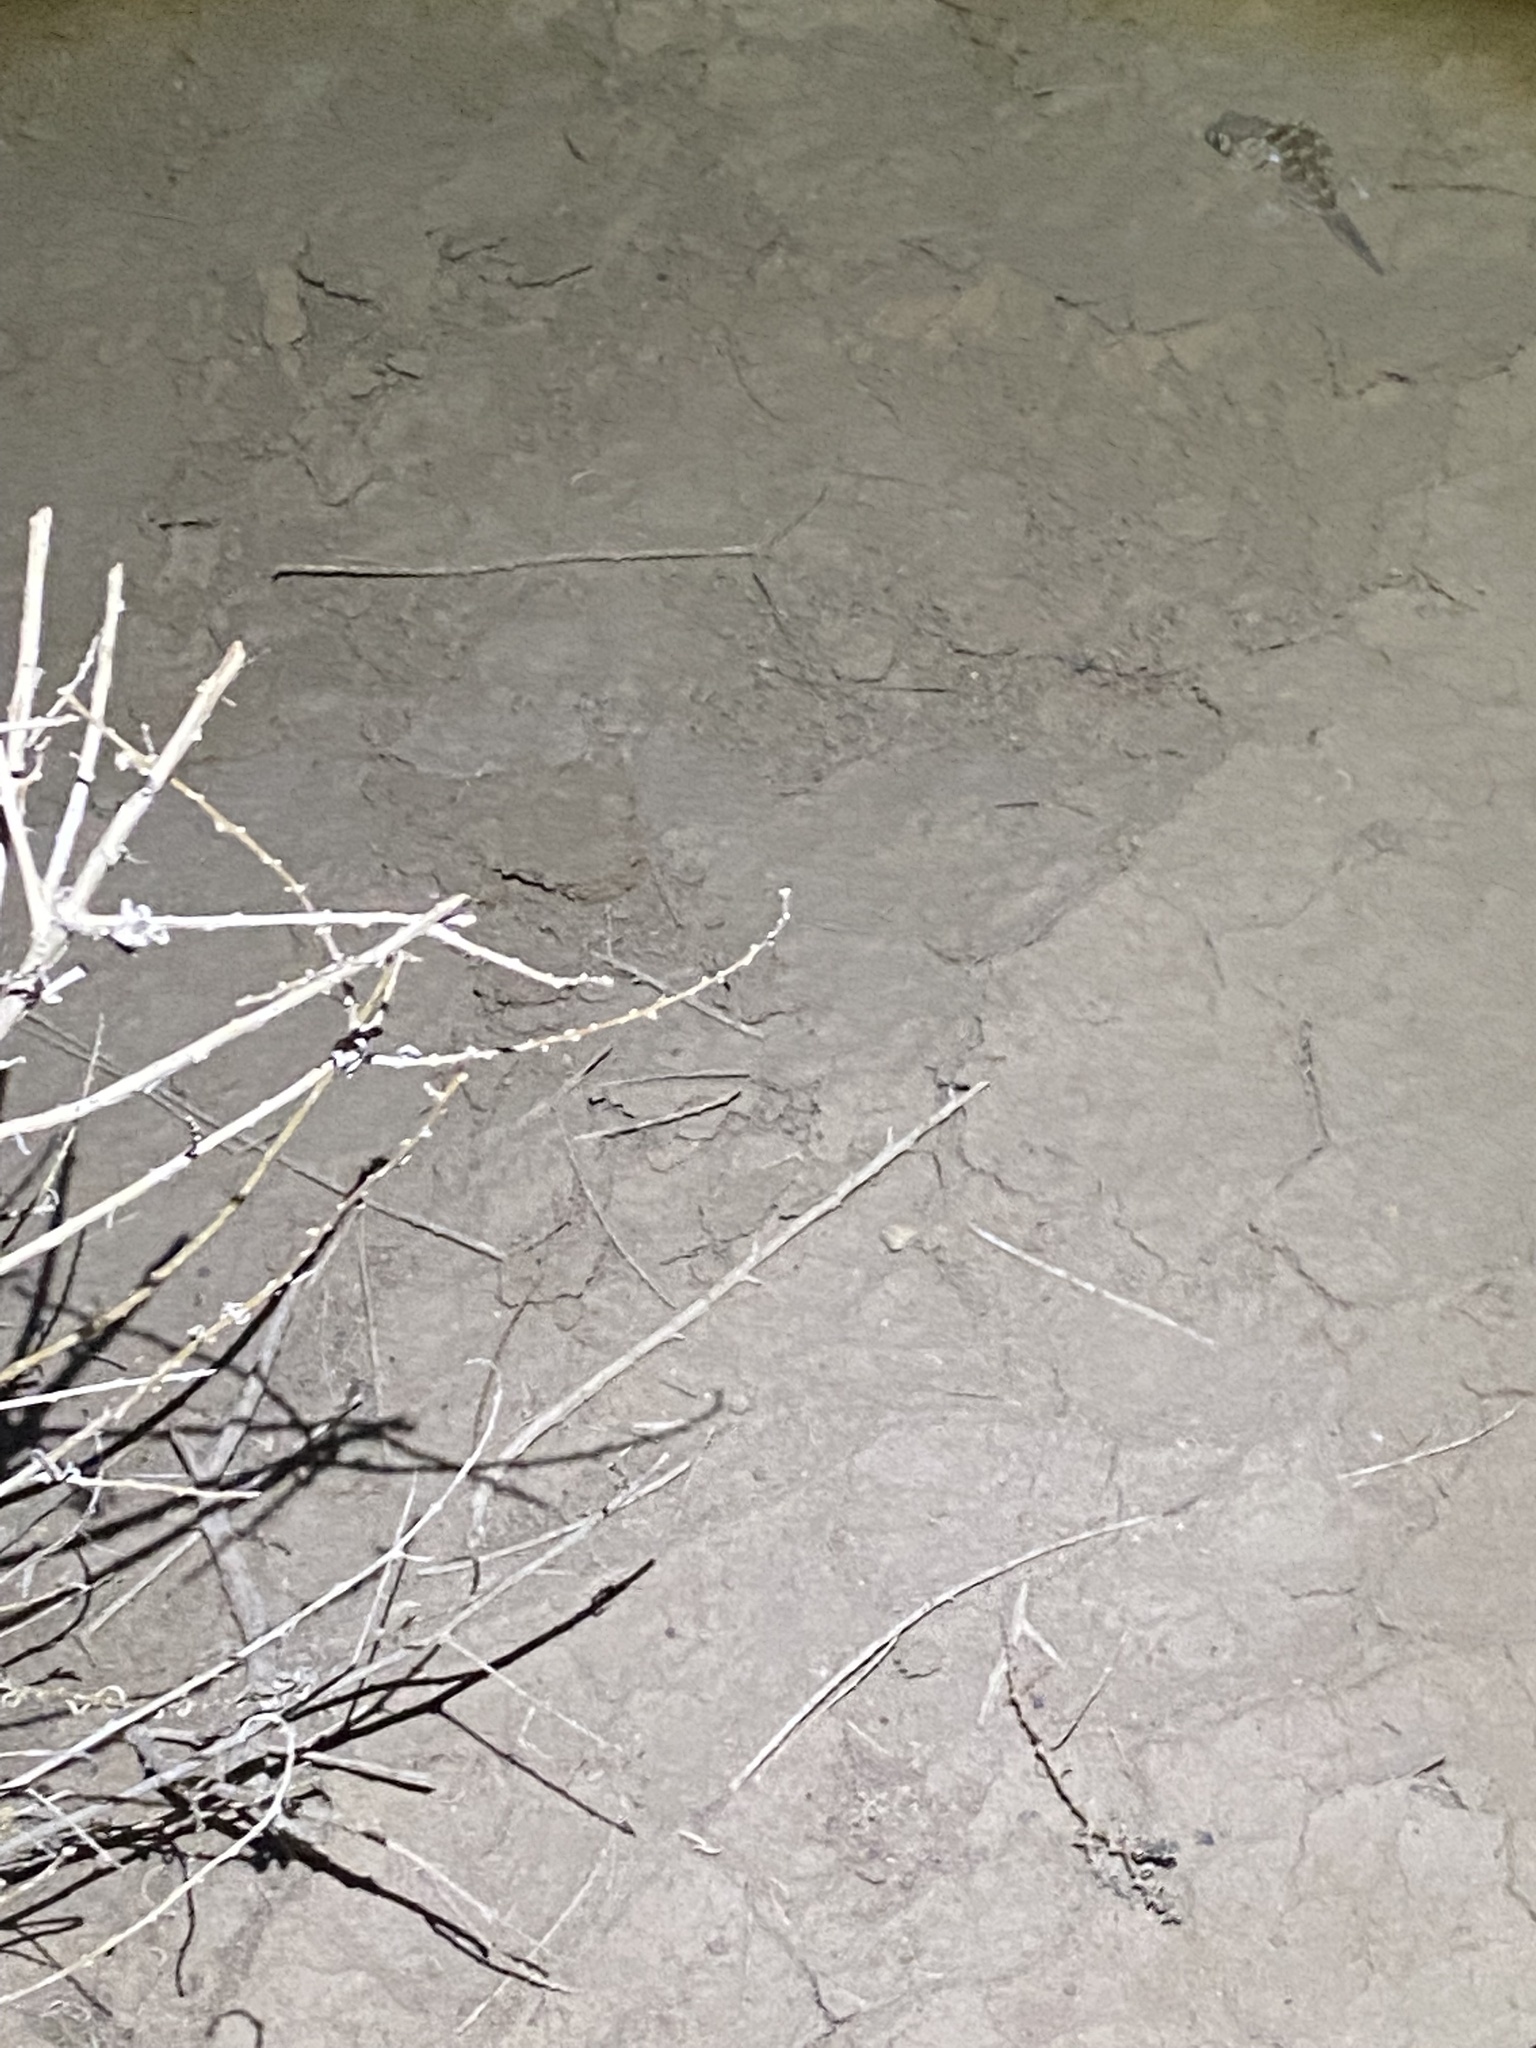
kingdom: Animalia
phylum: Chordata
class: Squamata
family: Sphaerodactylidae
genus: Teratoscincus
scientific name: Teratoscincus bedriagai
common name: Bedriaga's plate-tailed gecko
